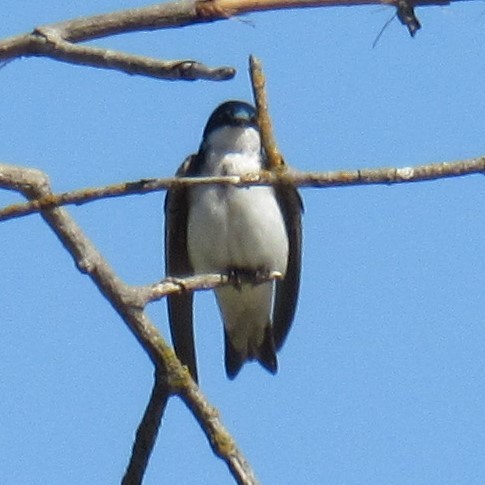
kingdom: Animalia
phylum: Chordata
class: Aves
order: Passeriformes
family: Hirundinidae
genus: Tachycineta
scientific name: Tachycineta bicolor
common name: Tree swallow
